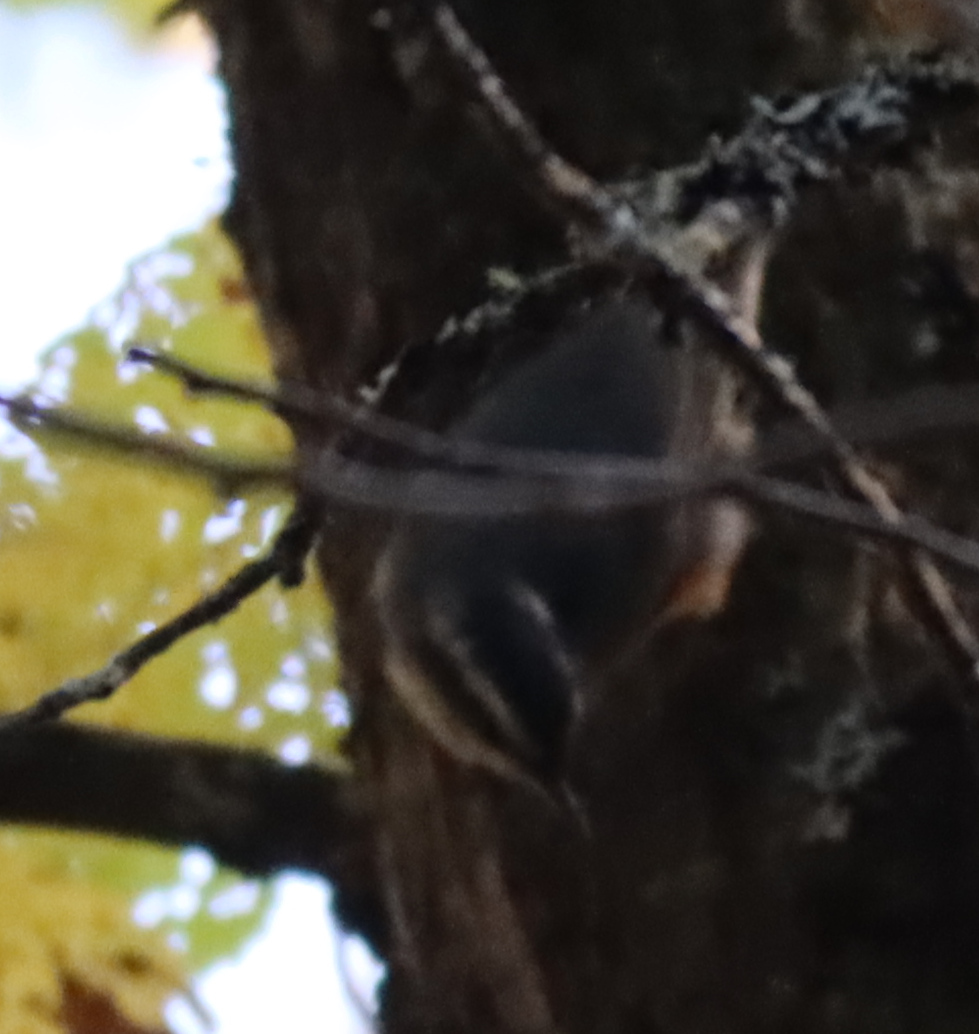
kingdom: Animalia
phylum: Chordata
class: Aves
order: Passeriformes
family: Sittidae
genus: Sitta
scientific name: Sitta canadensis
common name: Red-breasted nuthatch
